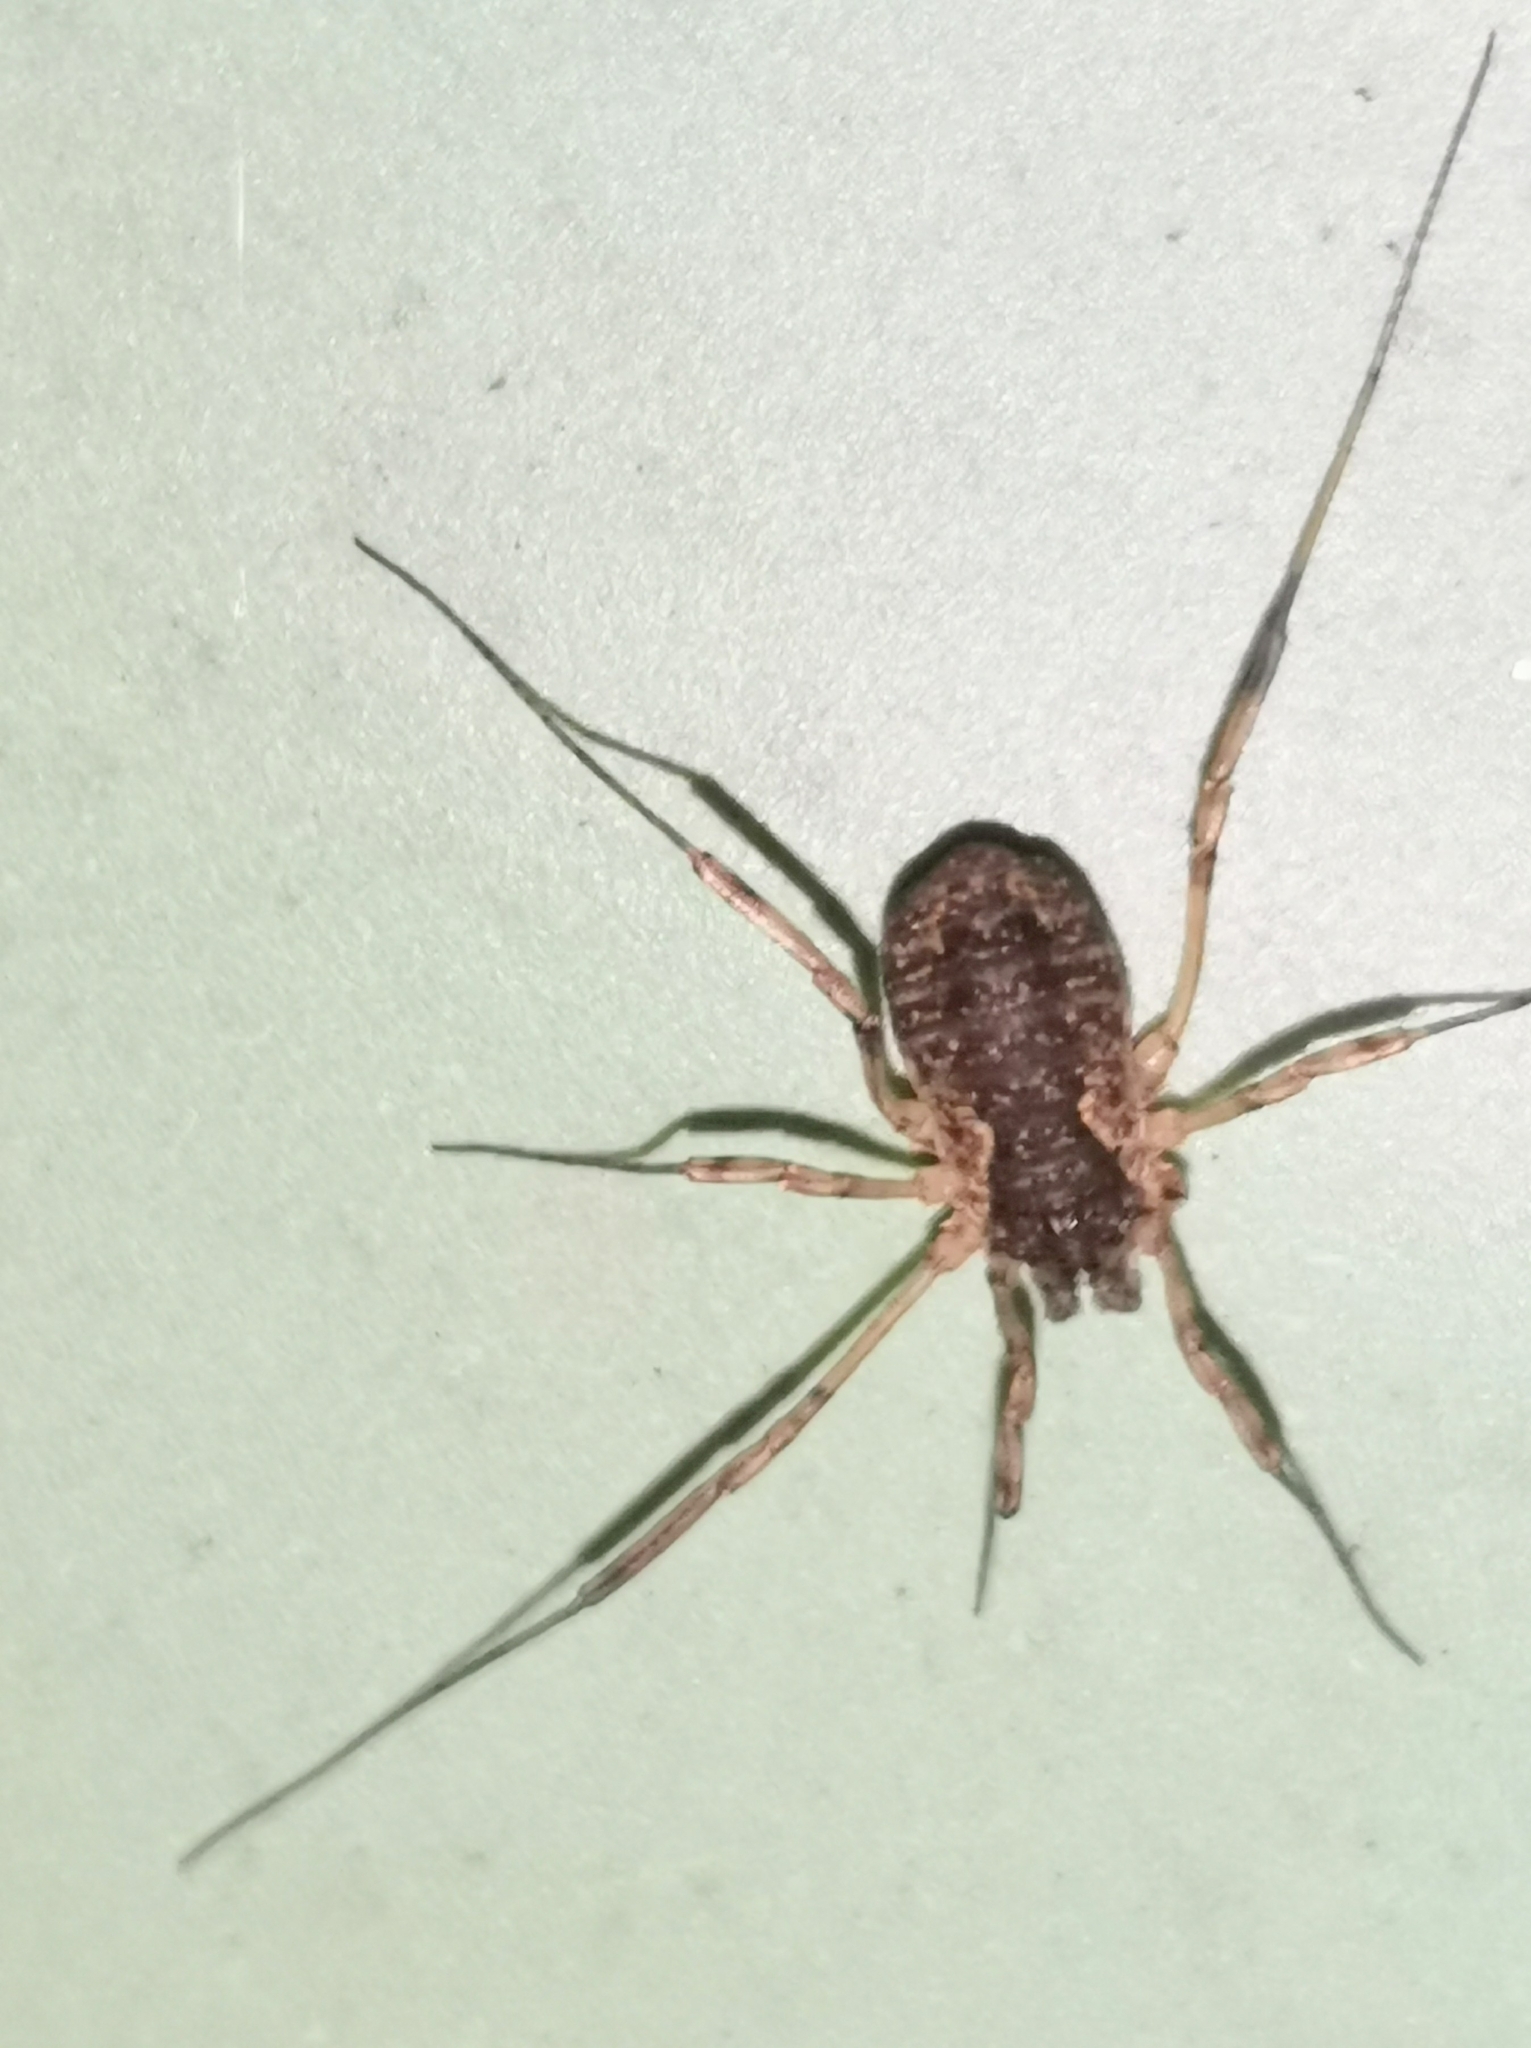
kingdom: Animalia
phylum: Arthropoda
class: Arachnida
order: Opiliones
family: Phalangiidae
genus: Oligolophus
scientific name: Oligolophus tridens
